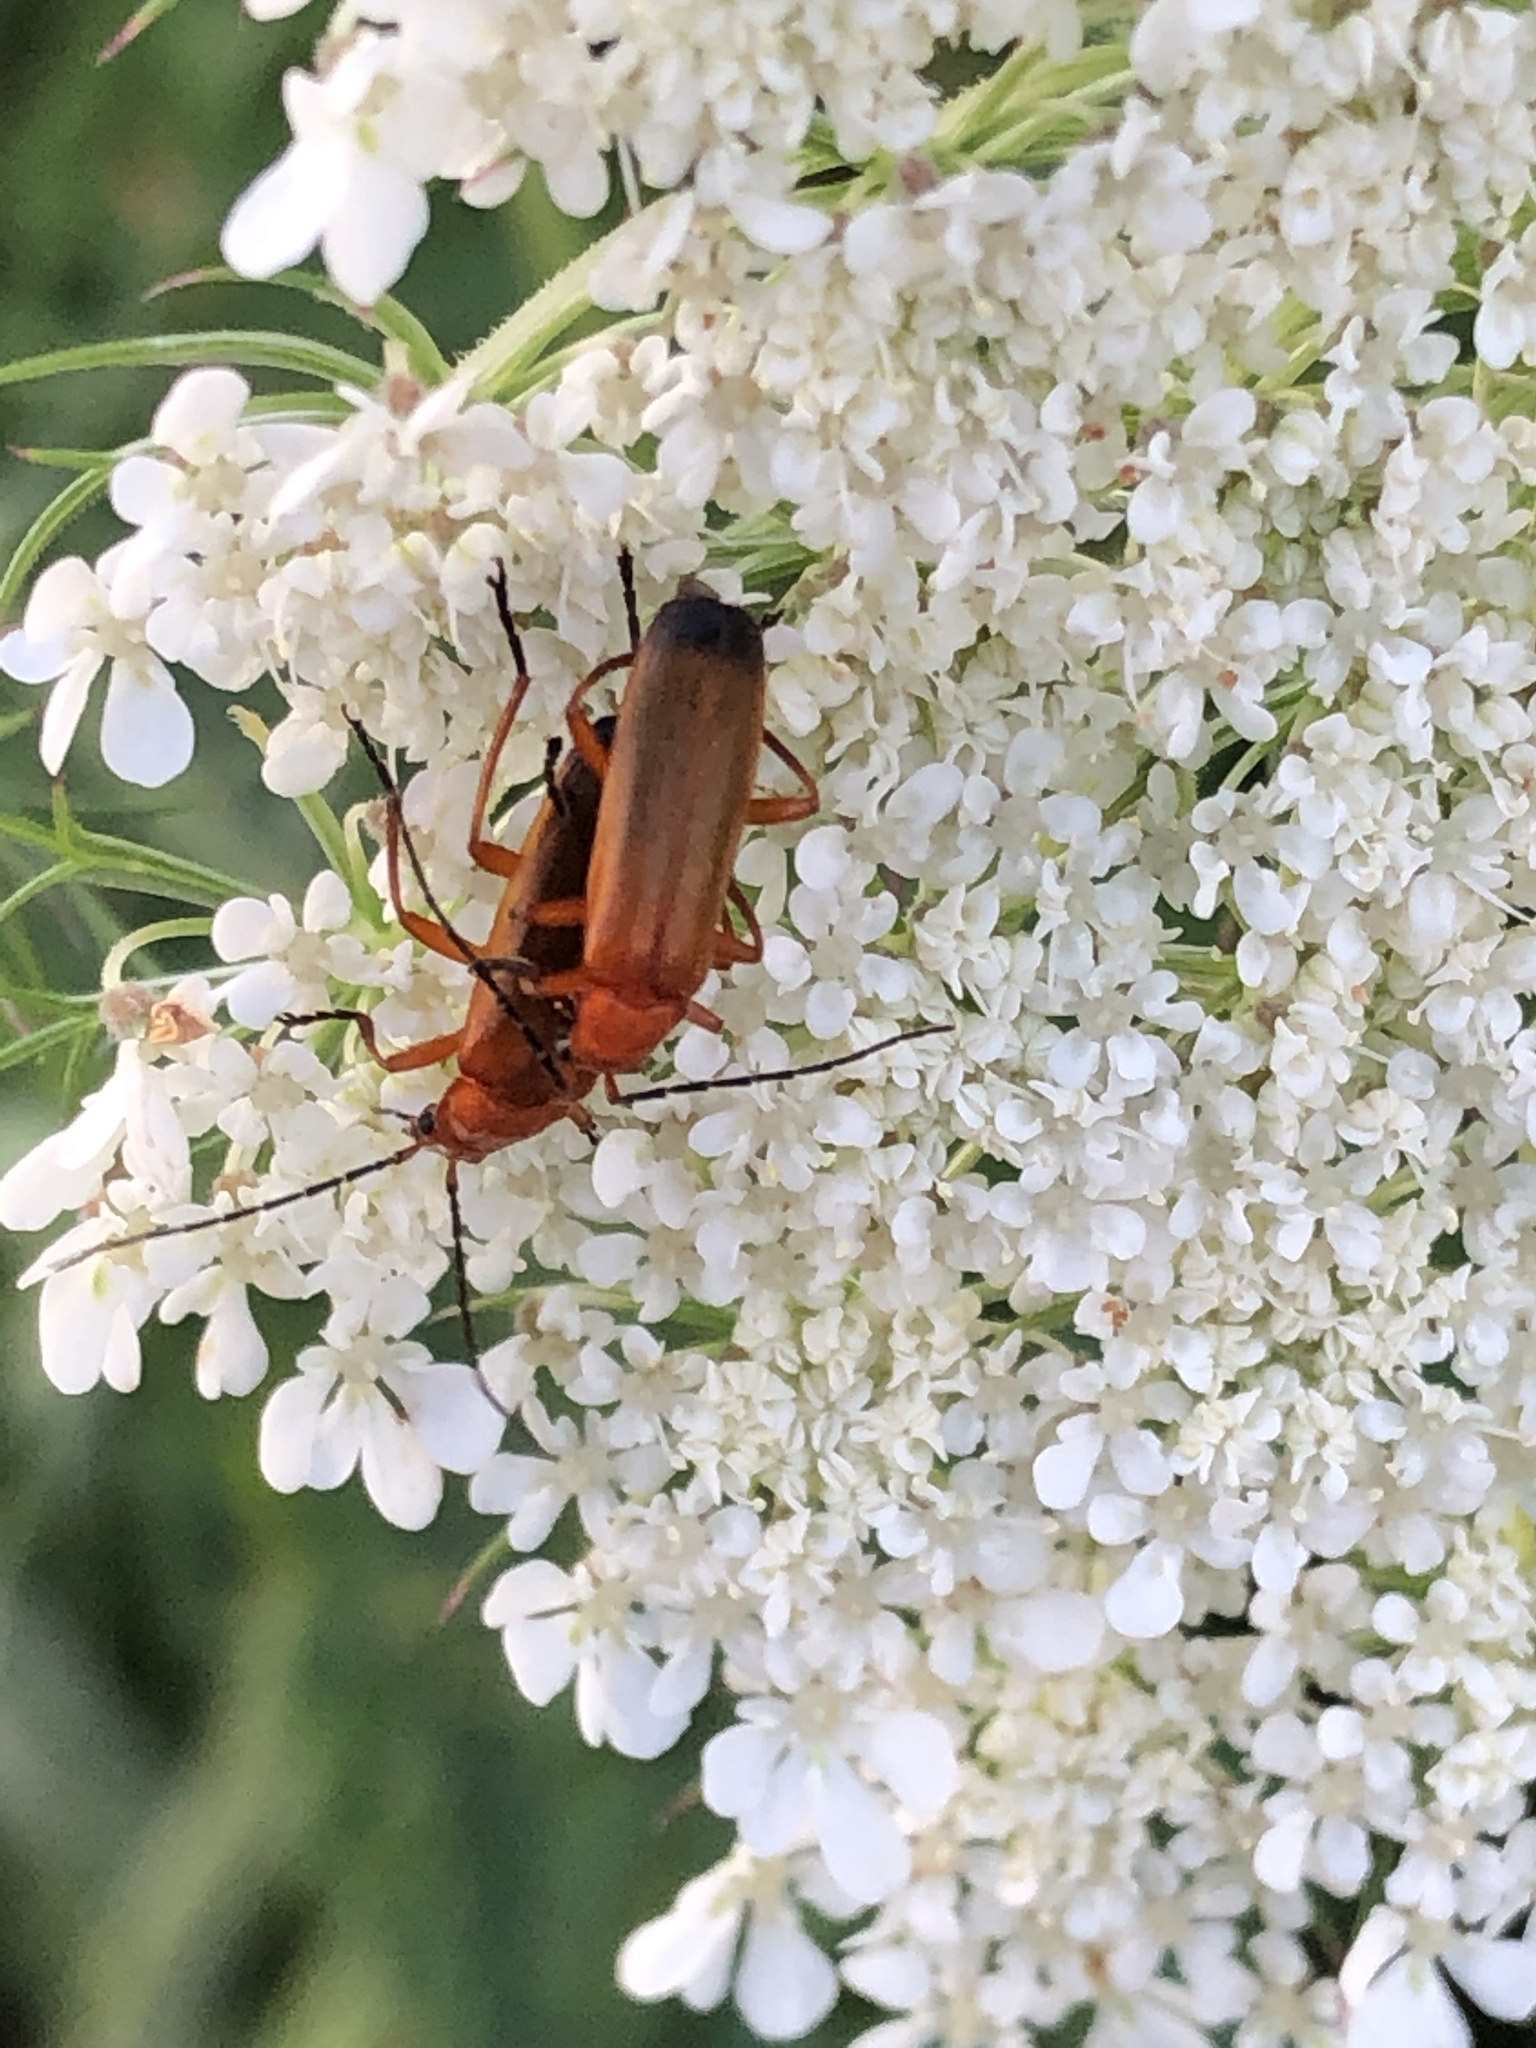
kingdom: Animalia
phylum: Arthropoda
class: Insecta
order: Coleoptera
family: Cantharidae
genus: Rhagonycha
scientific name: Rhagonycha fulva
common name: Common red soldier beetle
